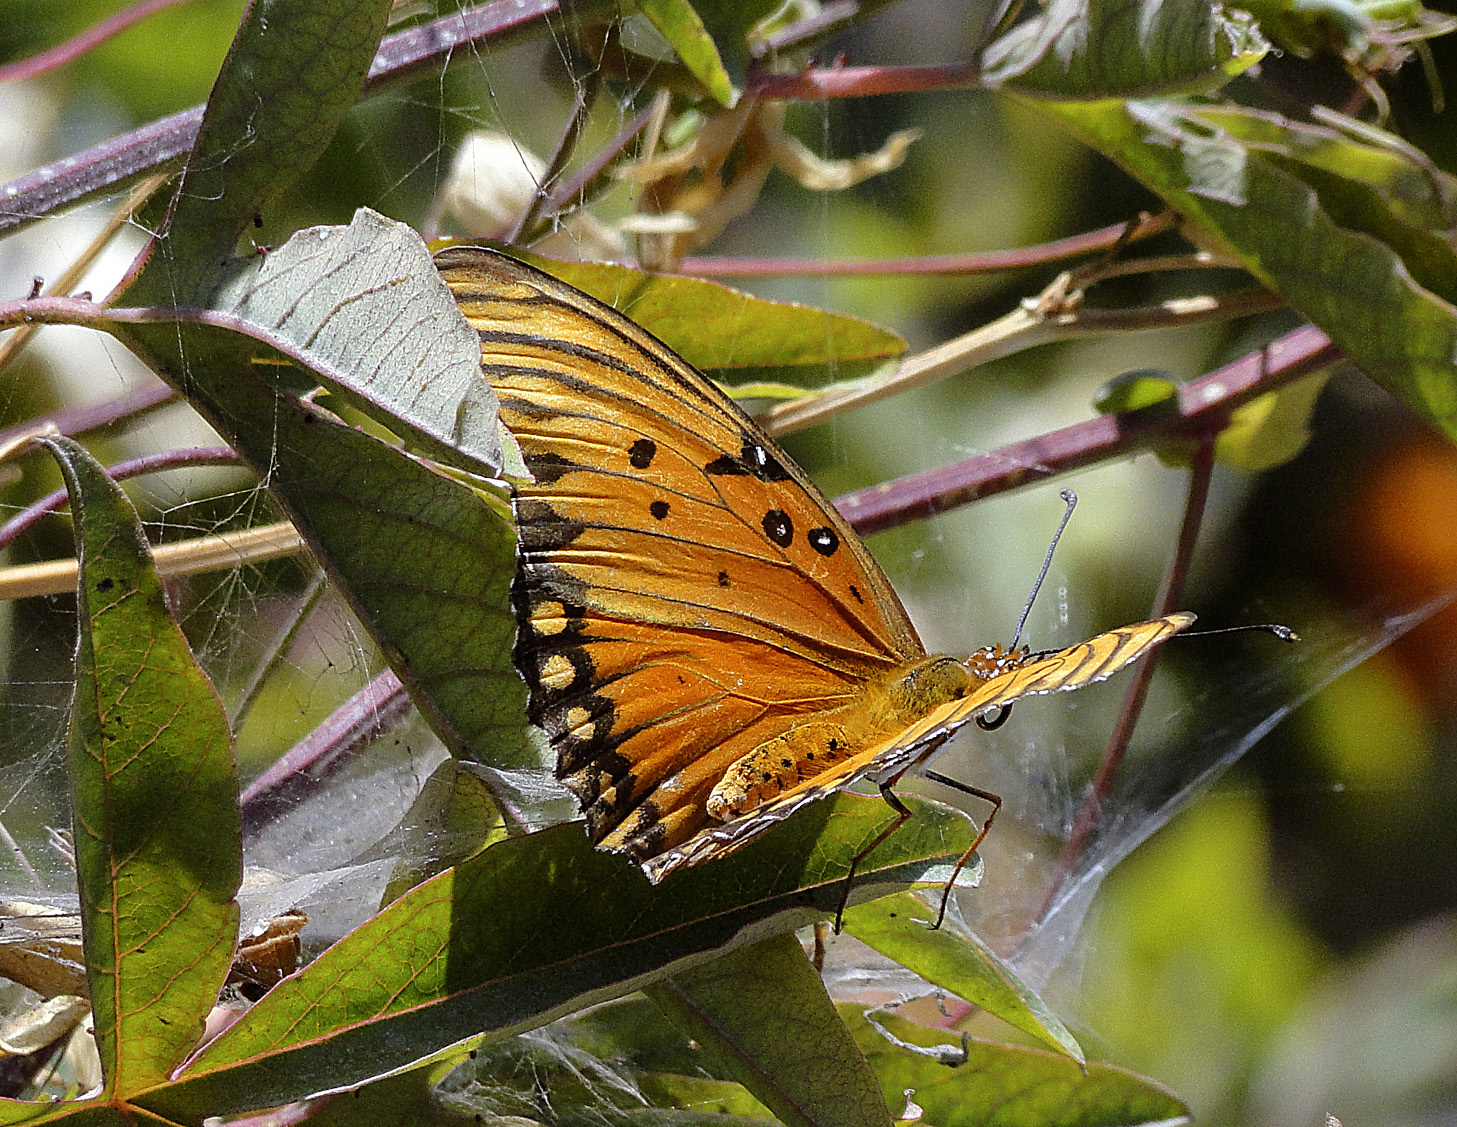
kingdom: Animalia
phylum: Arthropoda
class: Insecta
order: Lepidoptera
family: Nymphalidae
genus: Dione
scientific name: Dione vanillae
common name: Gulf fritillary
